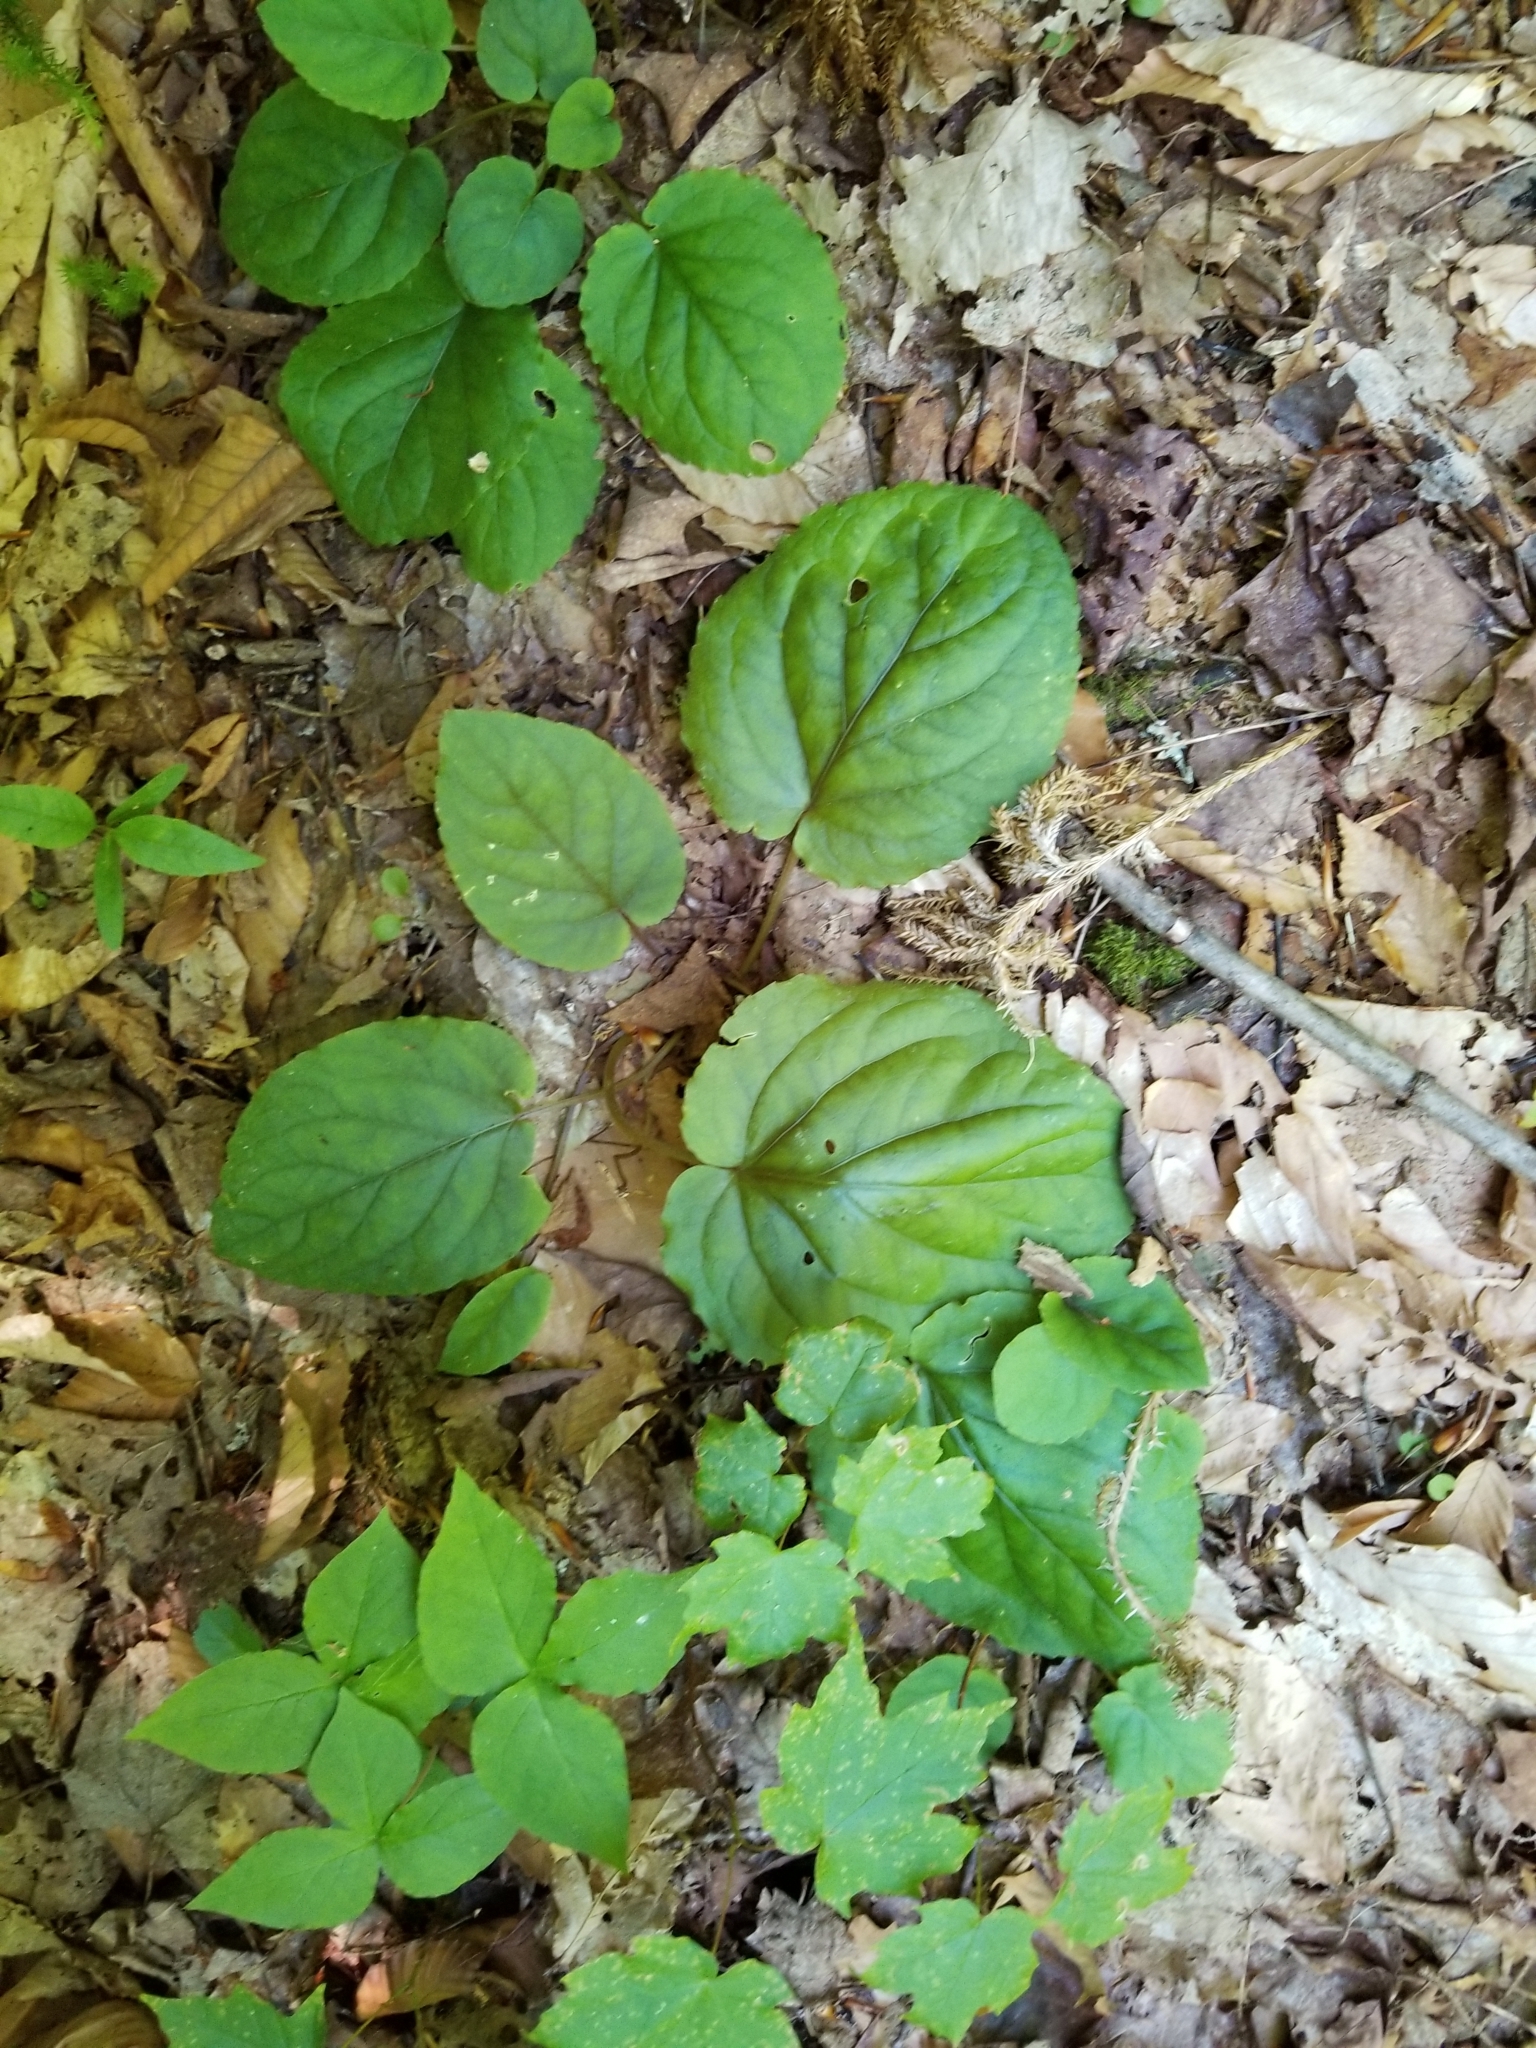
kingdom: Plantae
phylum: Tracheophyta
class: Magnoliopsida
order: Malpighiales
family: Violaceae
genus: Viola
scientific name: Viola rotundifolia
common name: Early yellow violet
